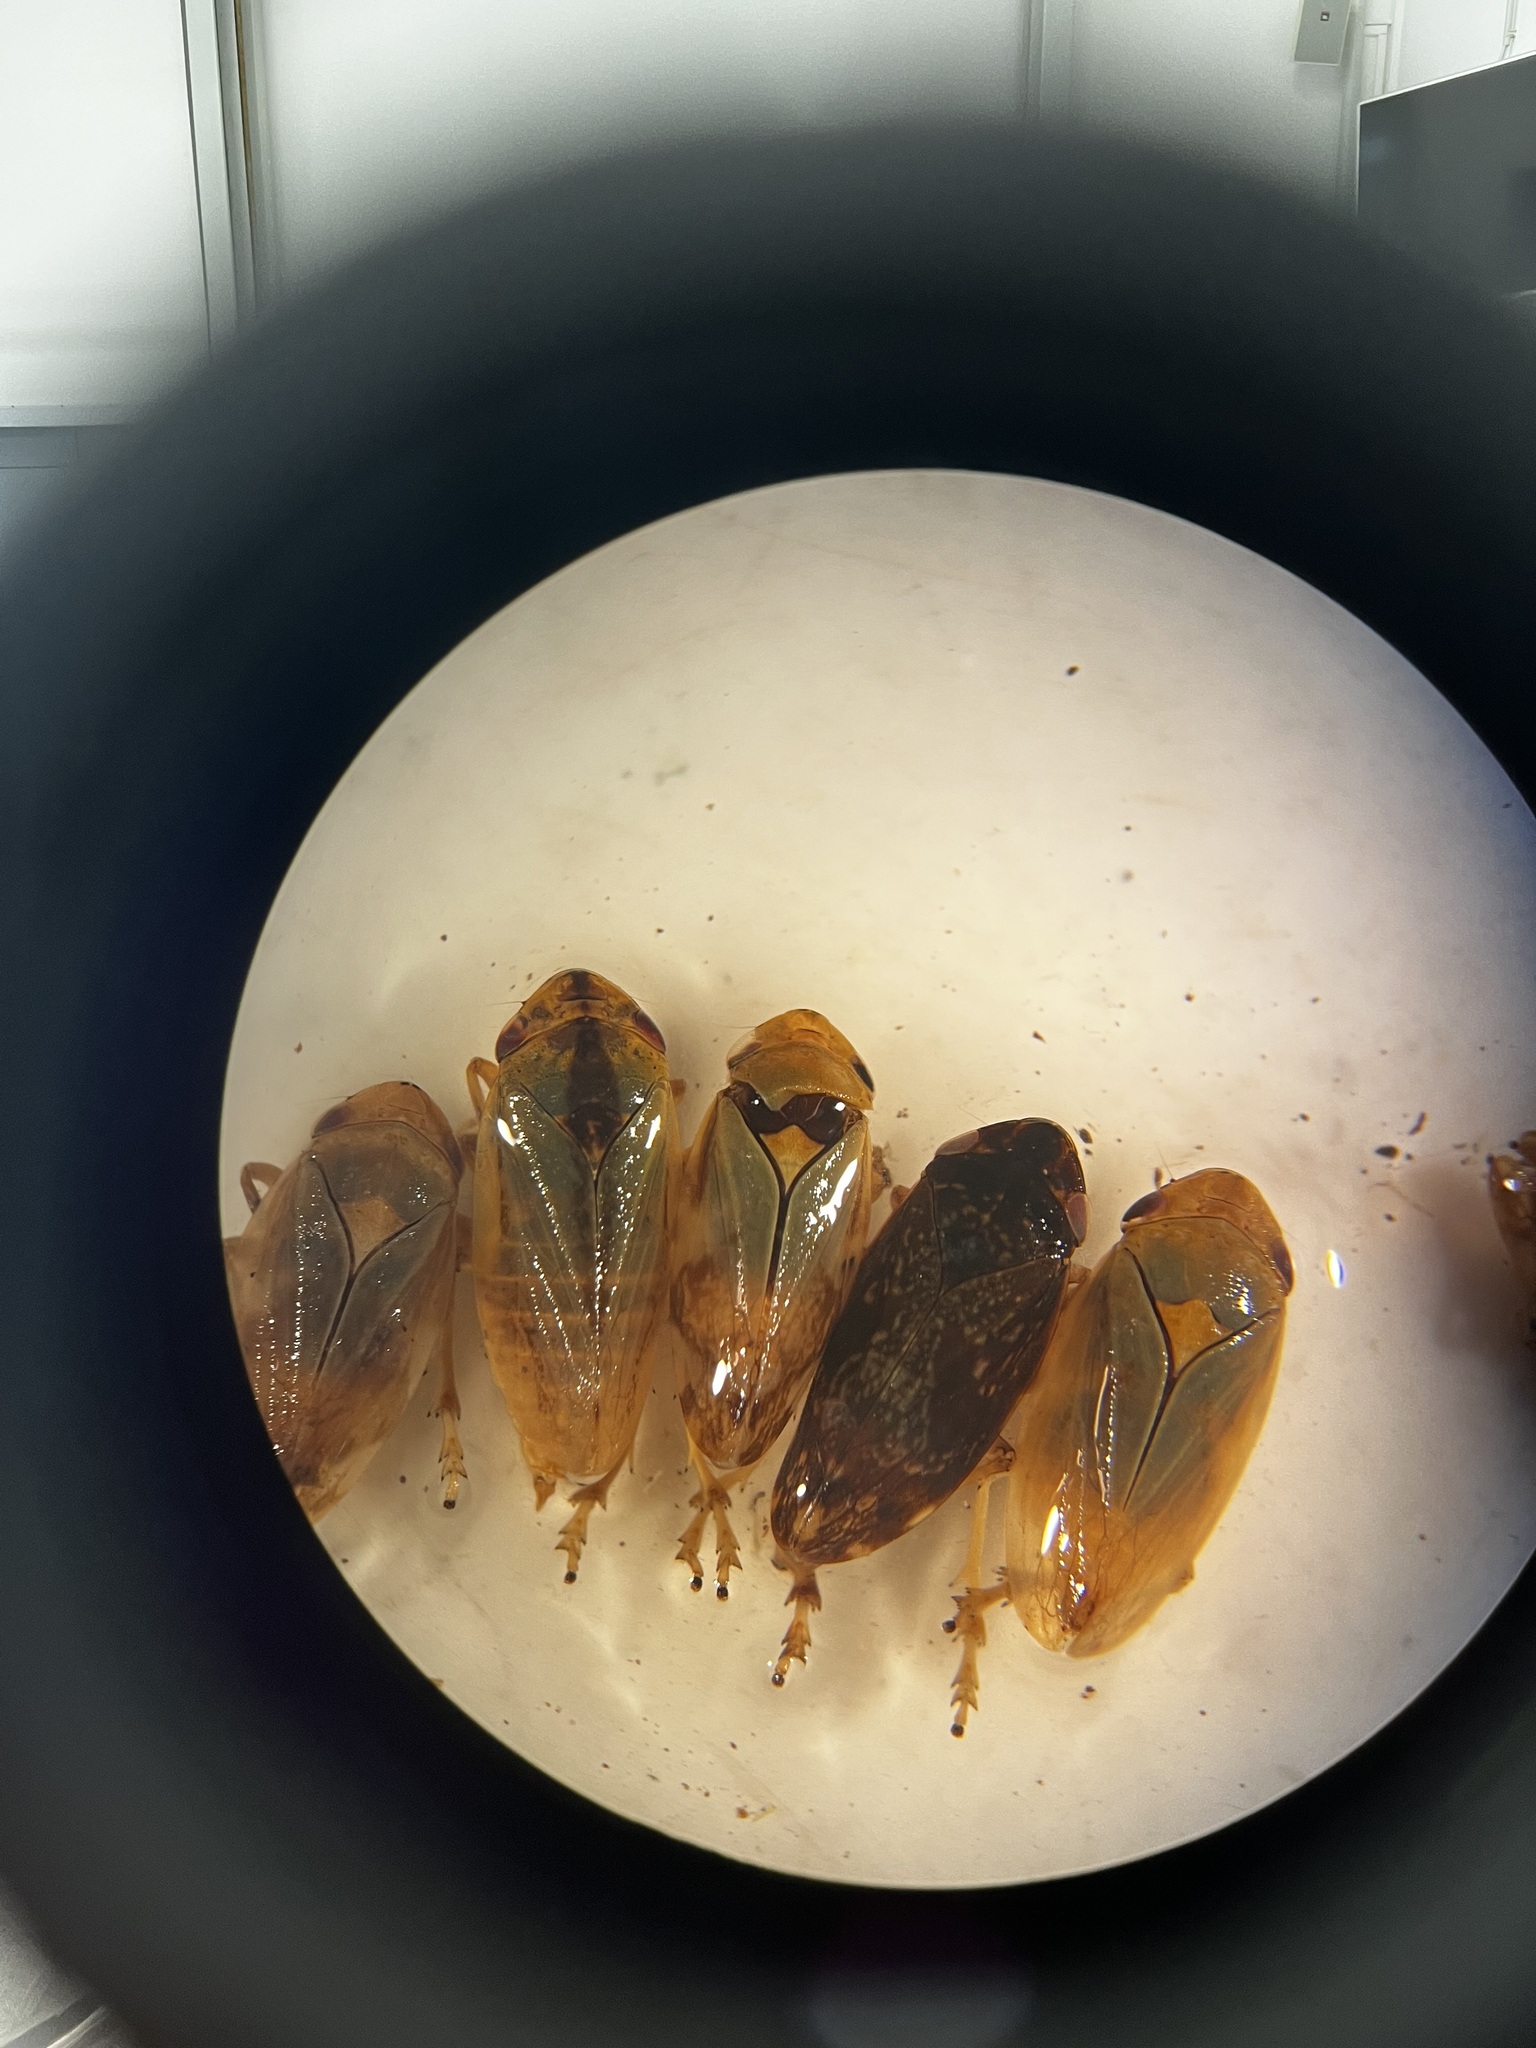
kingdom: Animalia
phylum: Arthropoda
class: Insecta
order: Hemiptera
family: Aphrophoridae
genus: Philaenus
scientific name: Philaenus spumarius
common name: Meadow spittlebug
